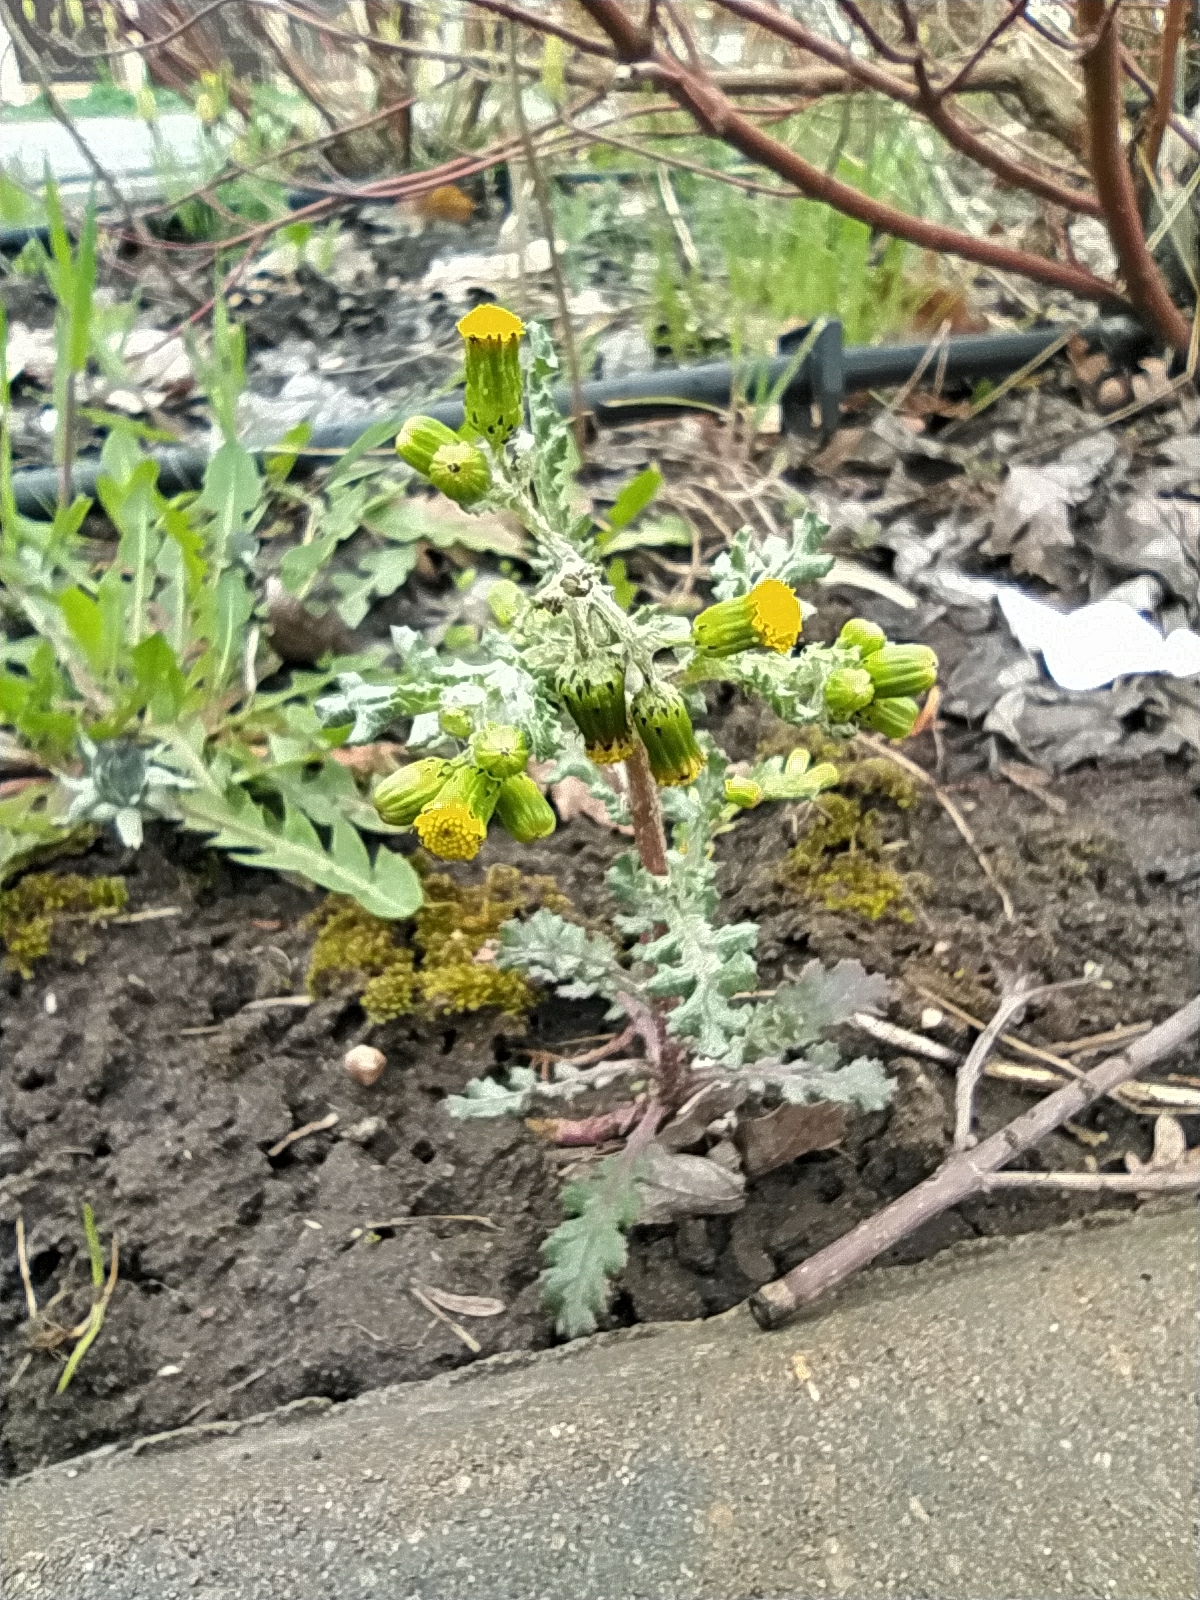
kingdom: Plantae
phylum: Tracheophyta
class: Magnoliopsida
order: Asterales
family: Asteraceae
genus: Senecio
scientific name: Senecio vulgaris
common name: Old-man-in-the-spring
